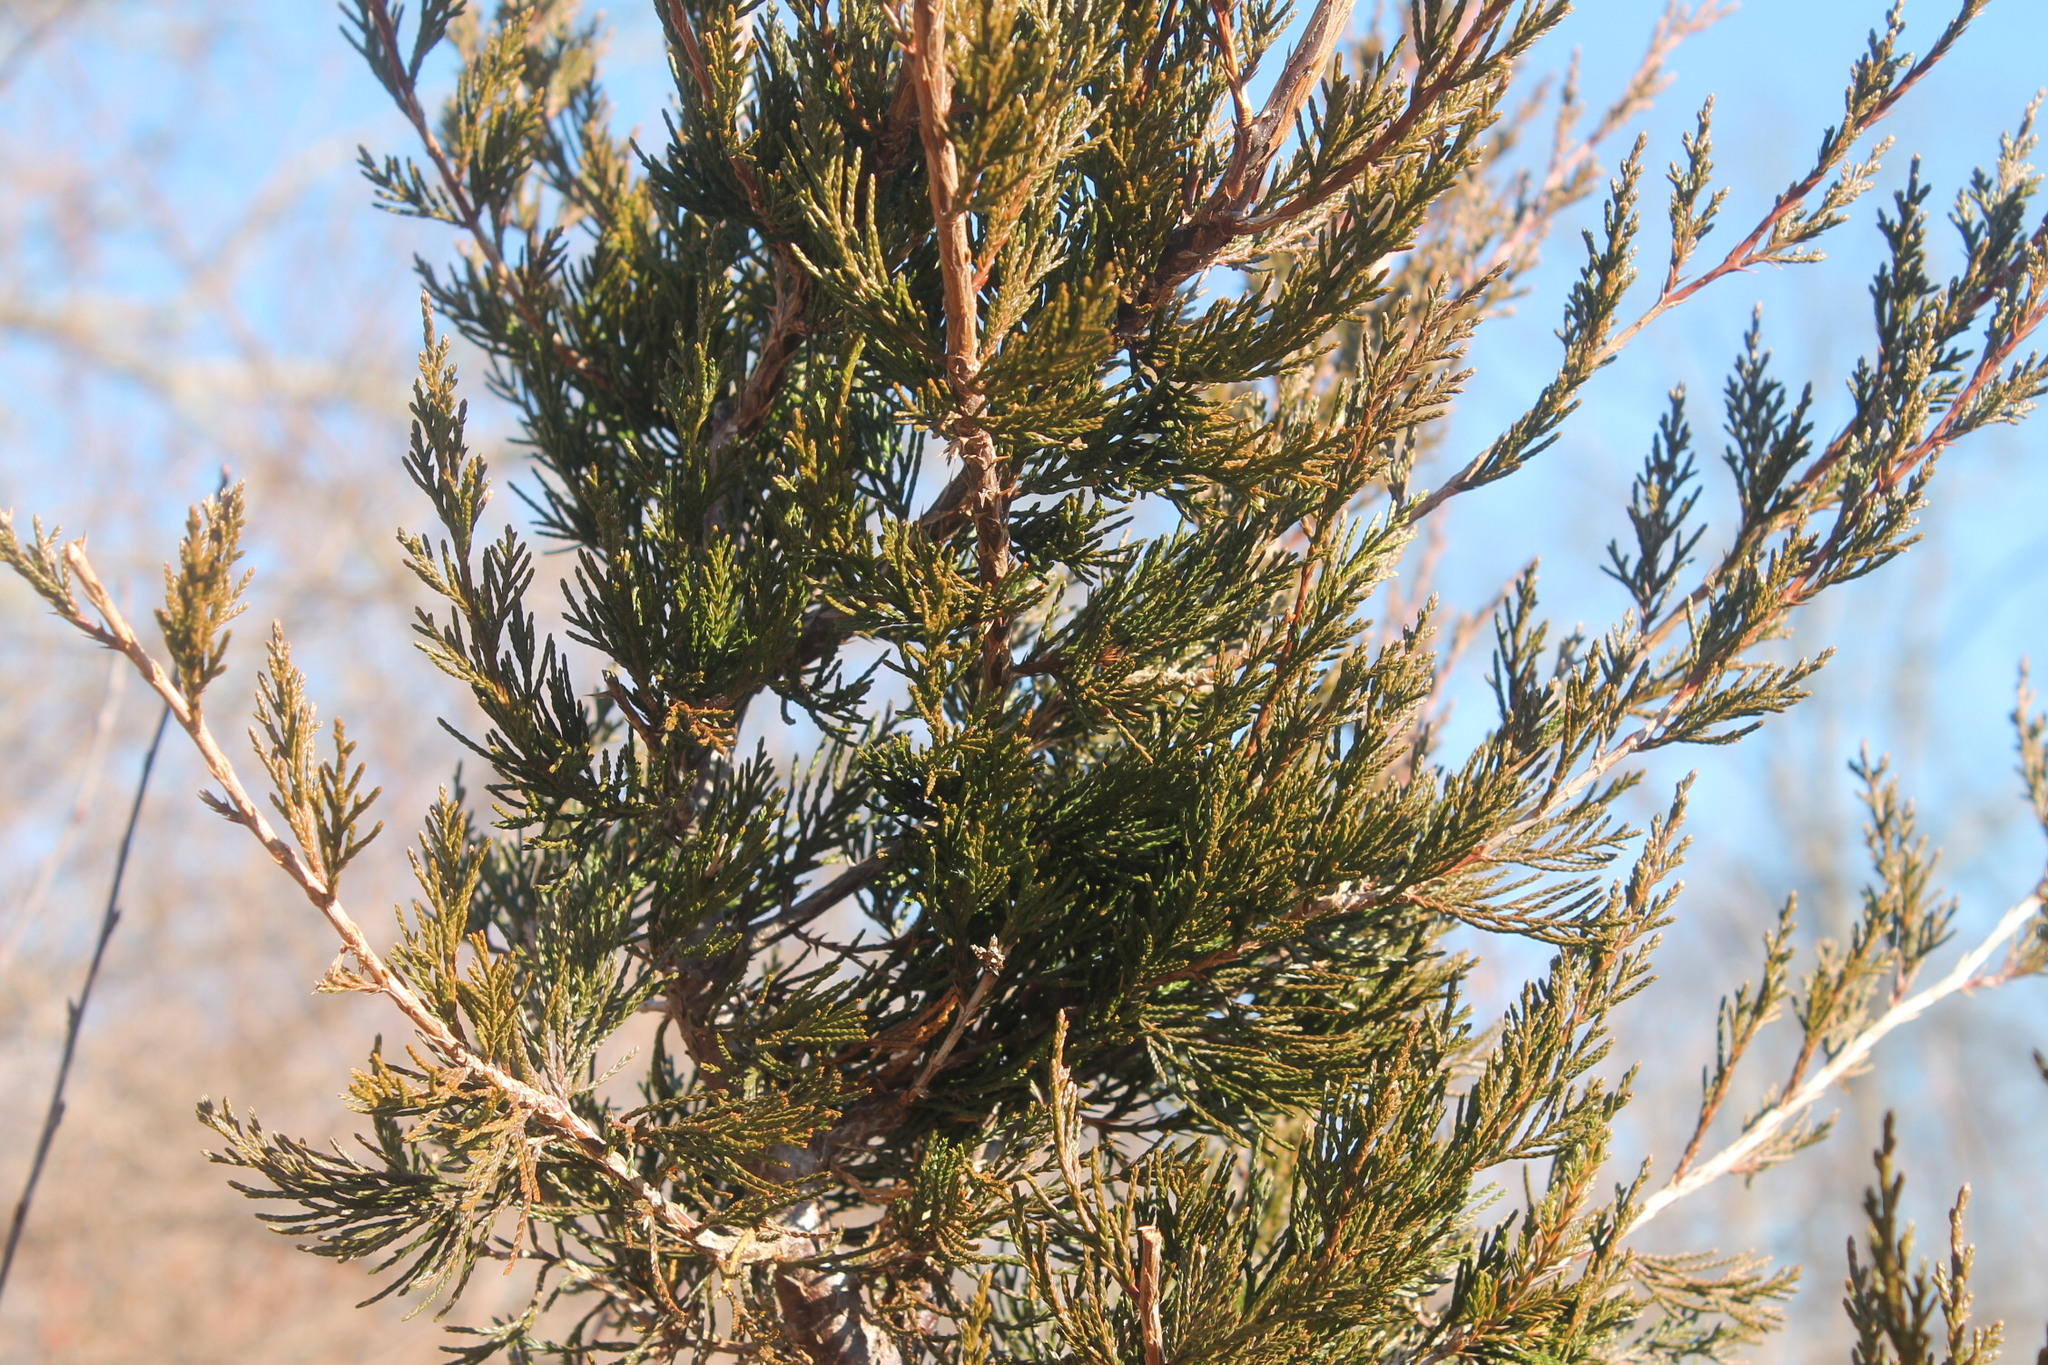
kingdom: Plantae
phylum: Tracheophyta
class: Pinopsida
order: Pinales
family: Cupressaceae
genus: Juniperus
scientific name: Juniperus virginiana
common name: Red juniper
